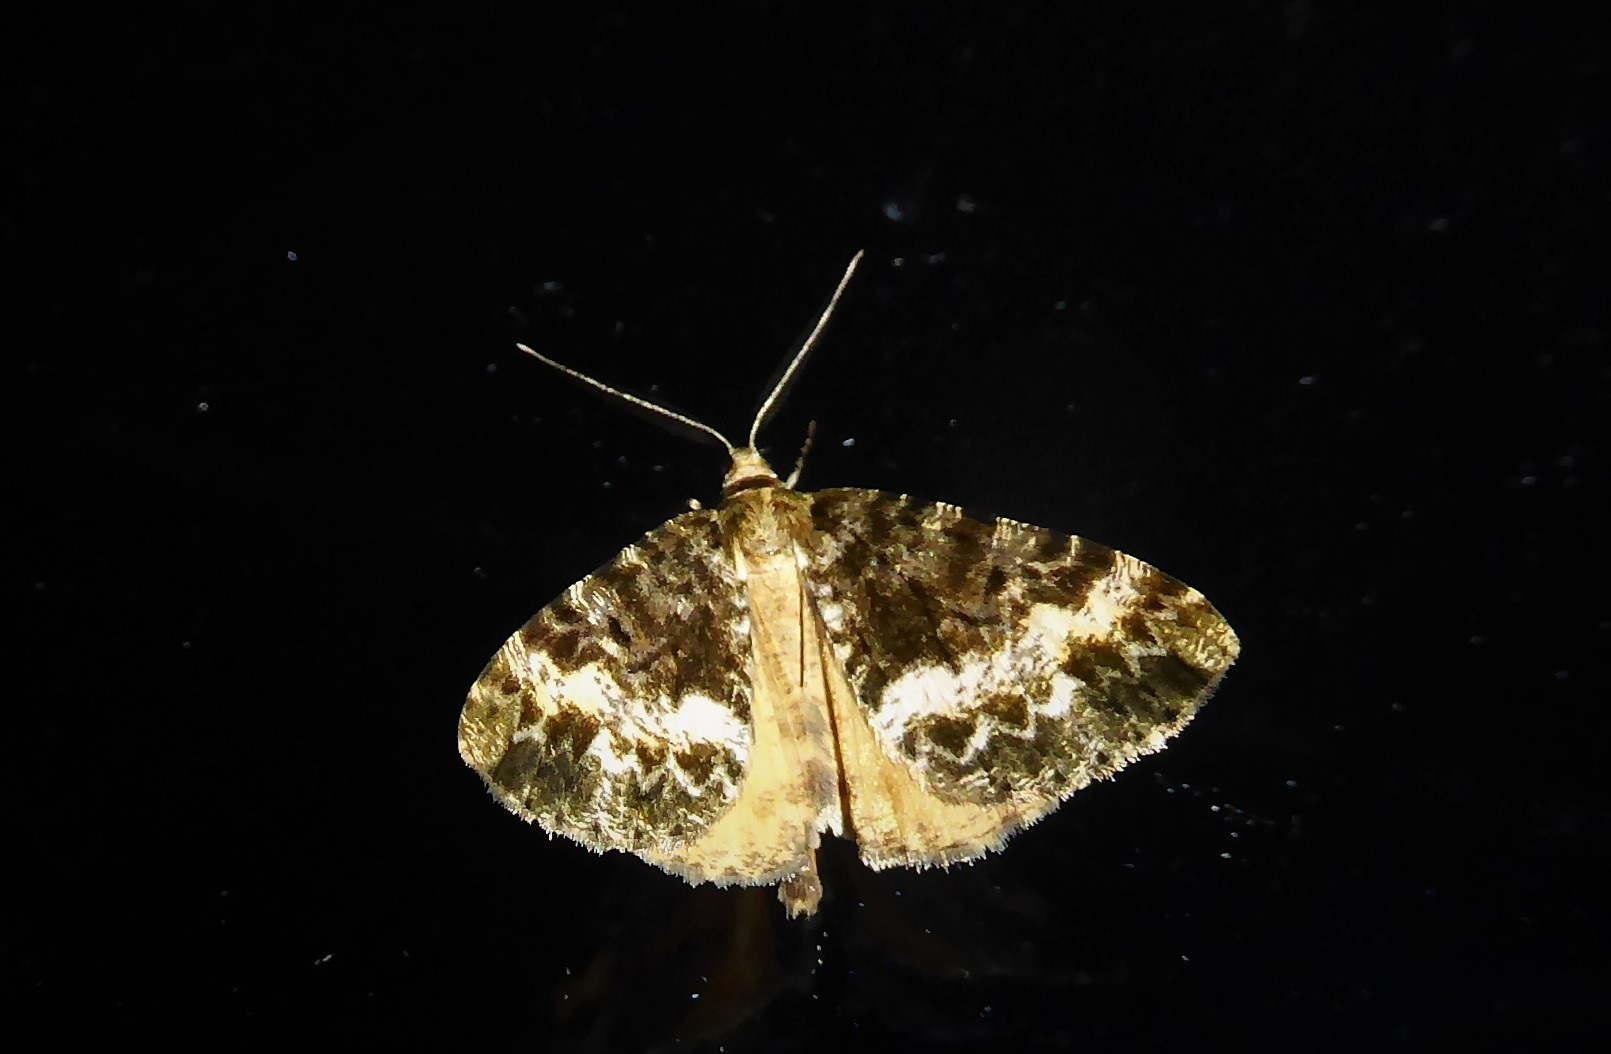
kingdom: Animalia
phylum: Arthropoda
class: Insecta
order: Lepidoptera
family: Geometridae
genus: Pseudocoremia
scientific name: Pseudocoremia lactiflua
